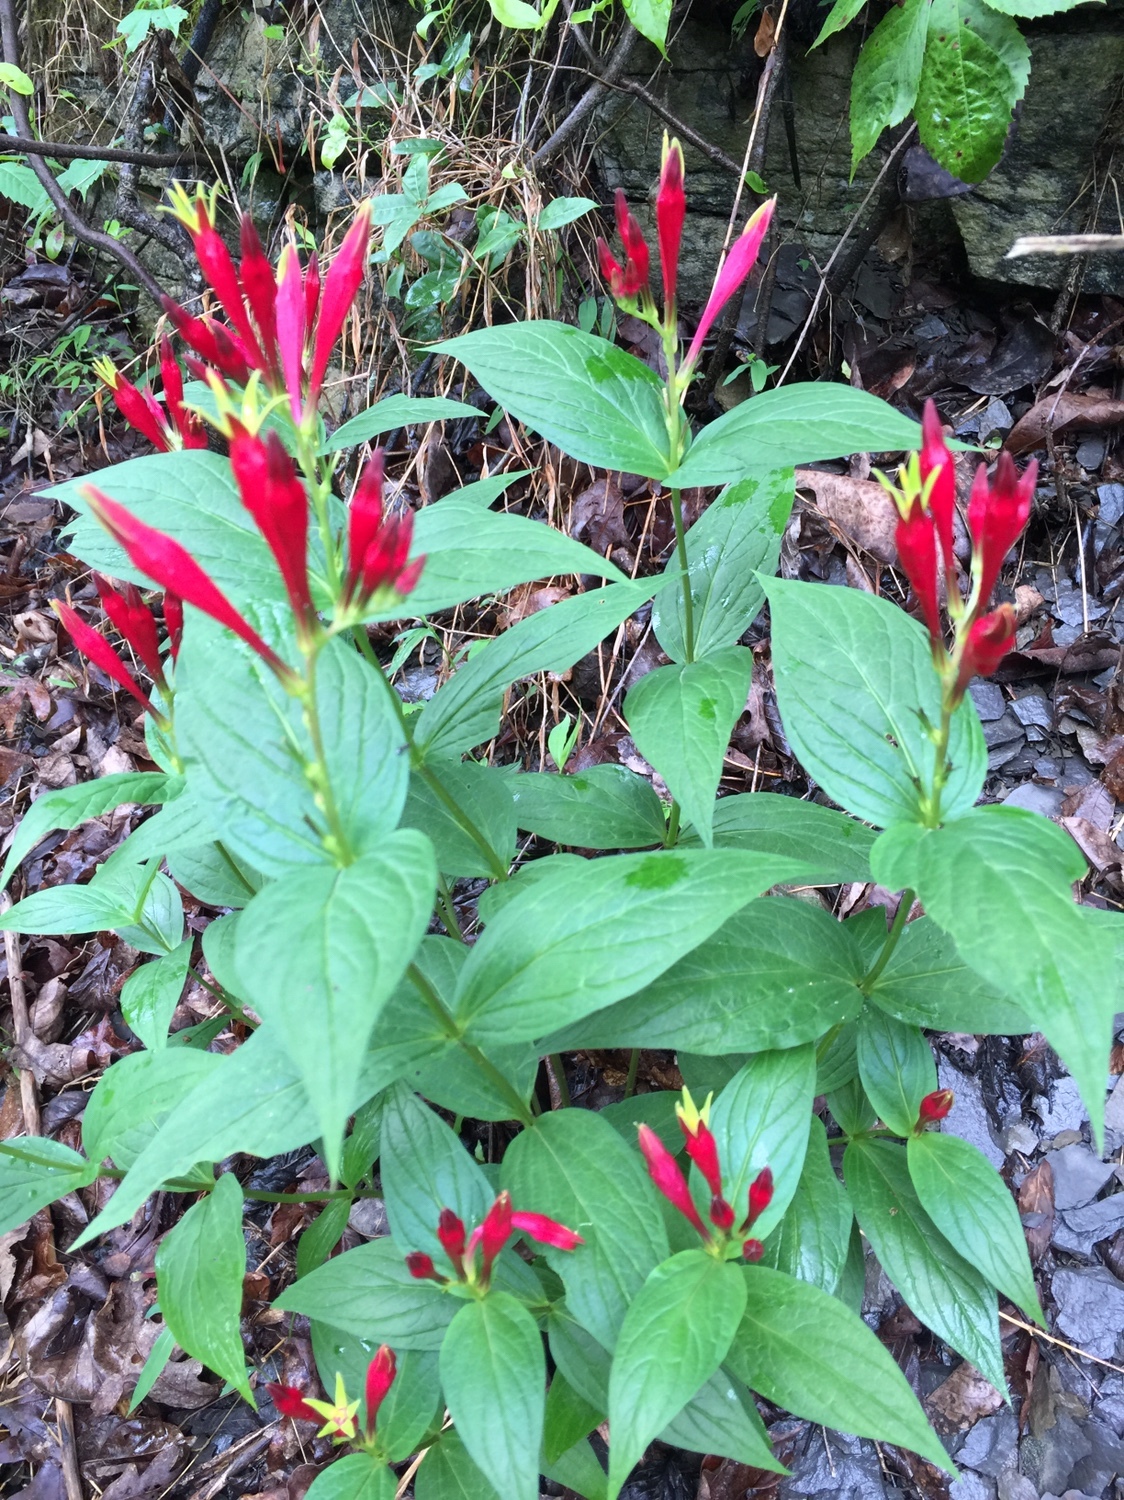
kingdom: Plantae
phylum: Tracheophyta
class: Magnoliopsida
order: Gentianales
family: Loganiaceae
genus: Spigelia
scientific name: Spigelia marilandica
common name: Indian-pink
